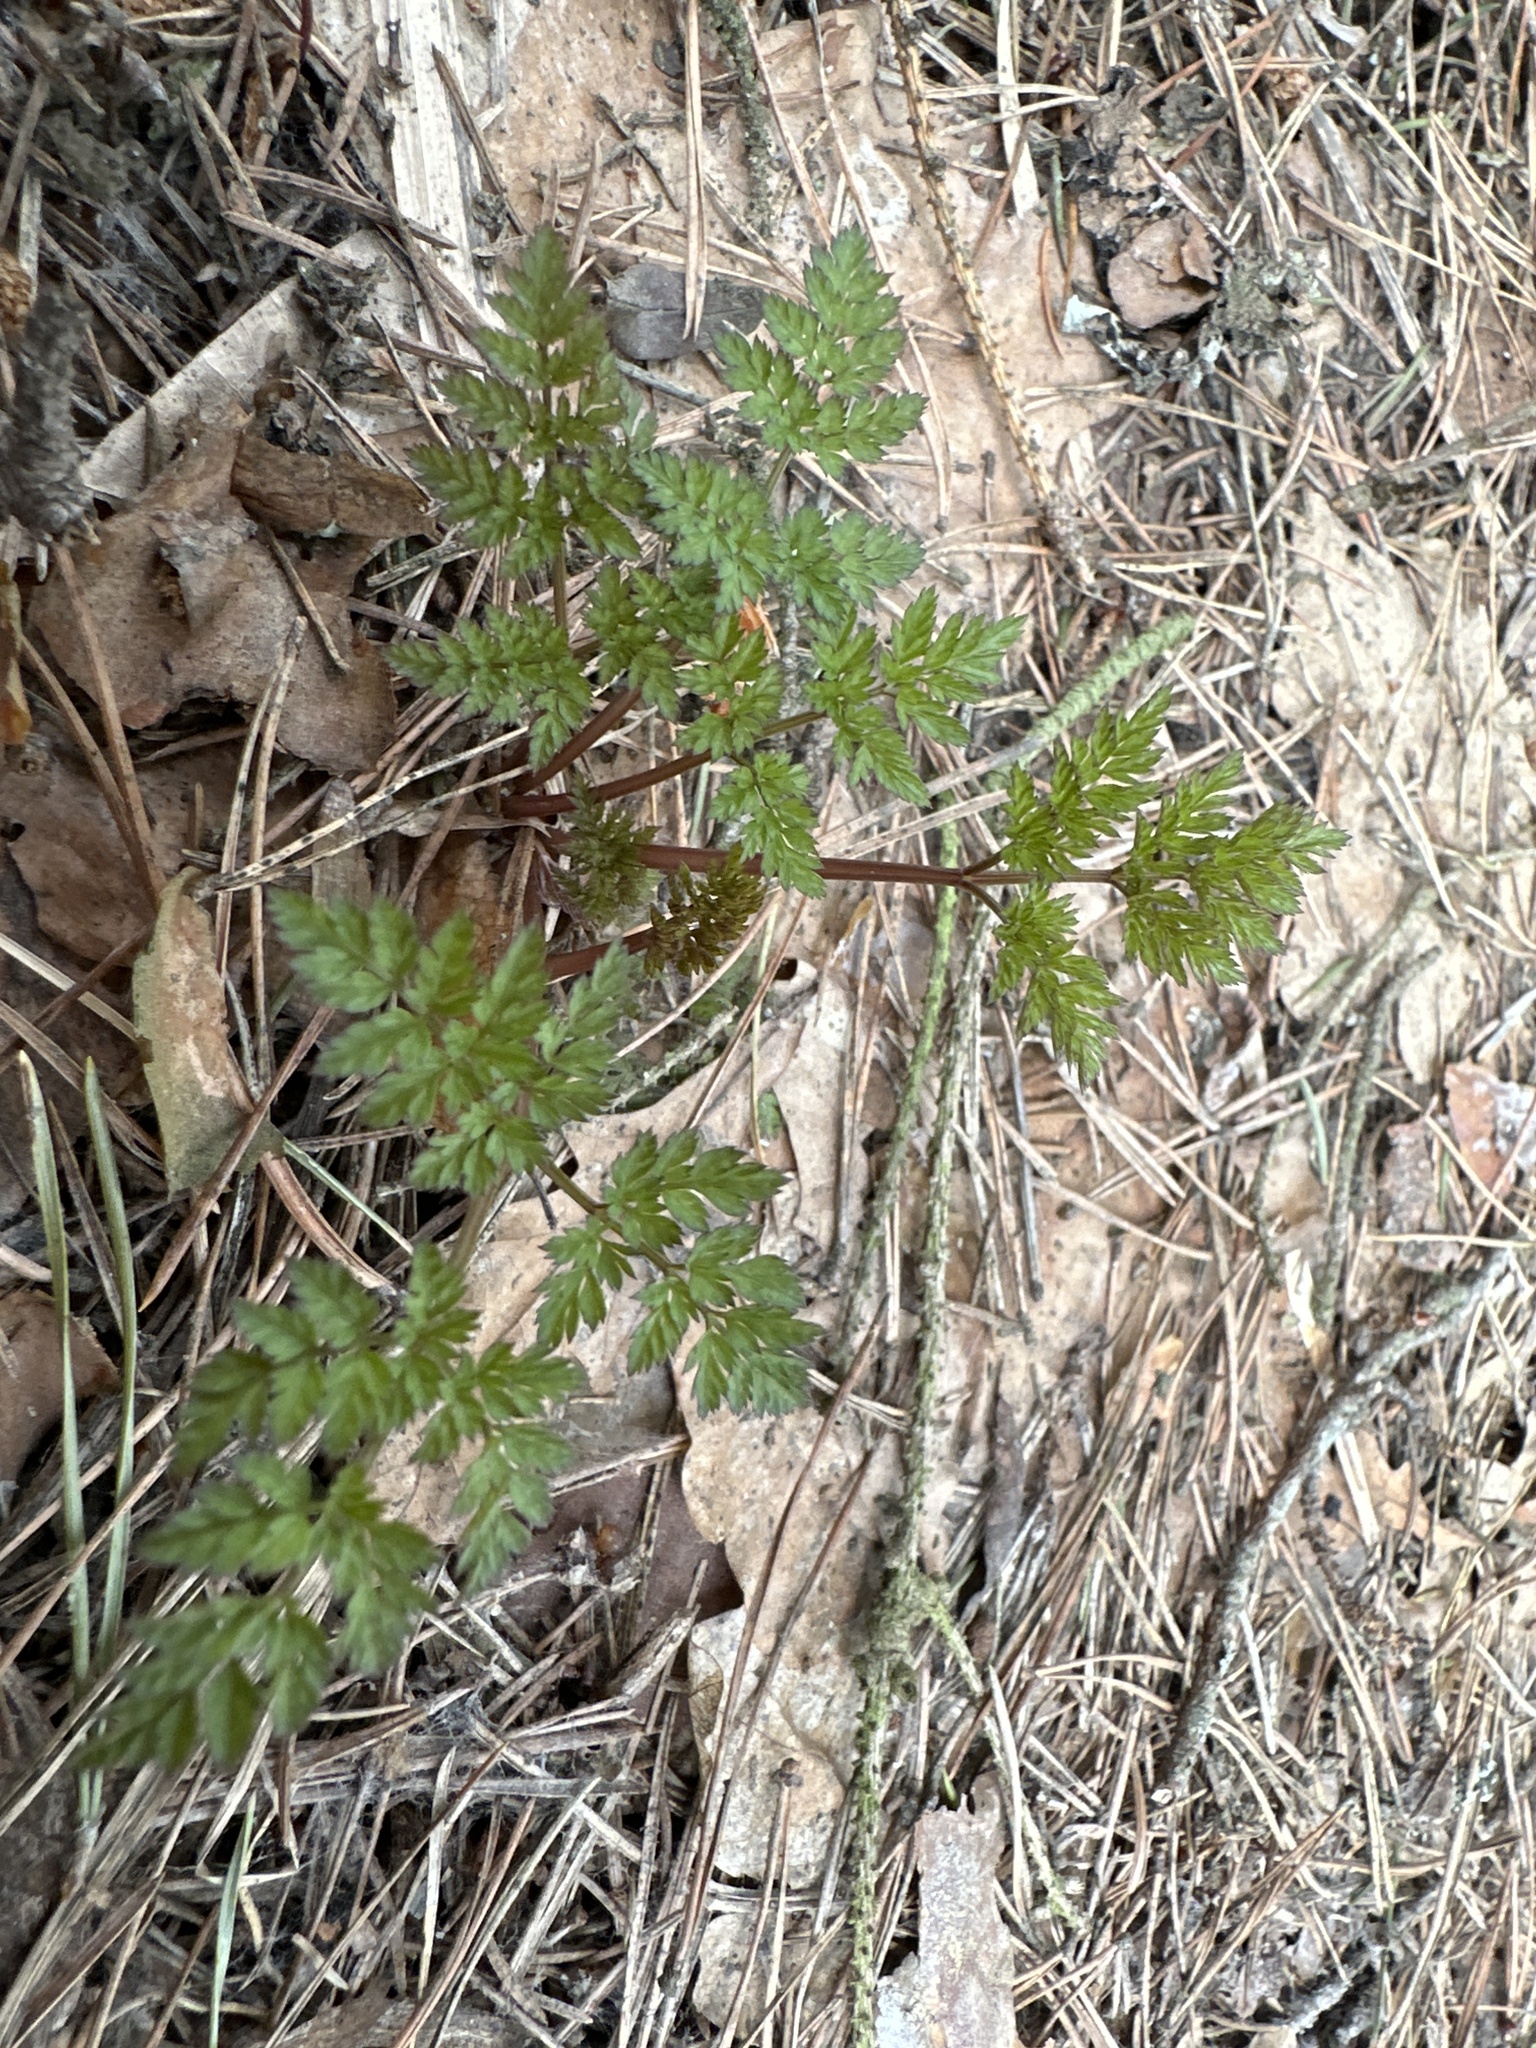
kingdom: Plantae
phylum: Tracheophyta
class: Magnoliopsida
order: Apiales
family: Apiaceae
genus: Anthriscus
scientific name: Anthriscus sylvestris
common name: Cow parsley
